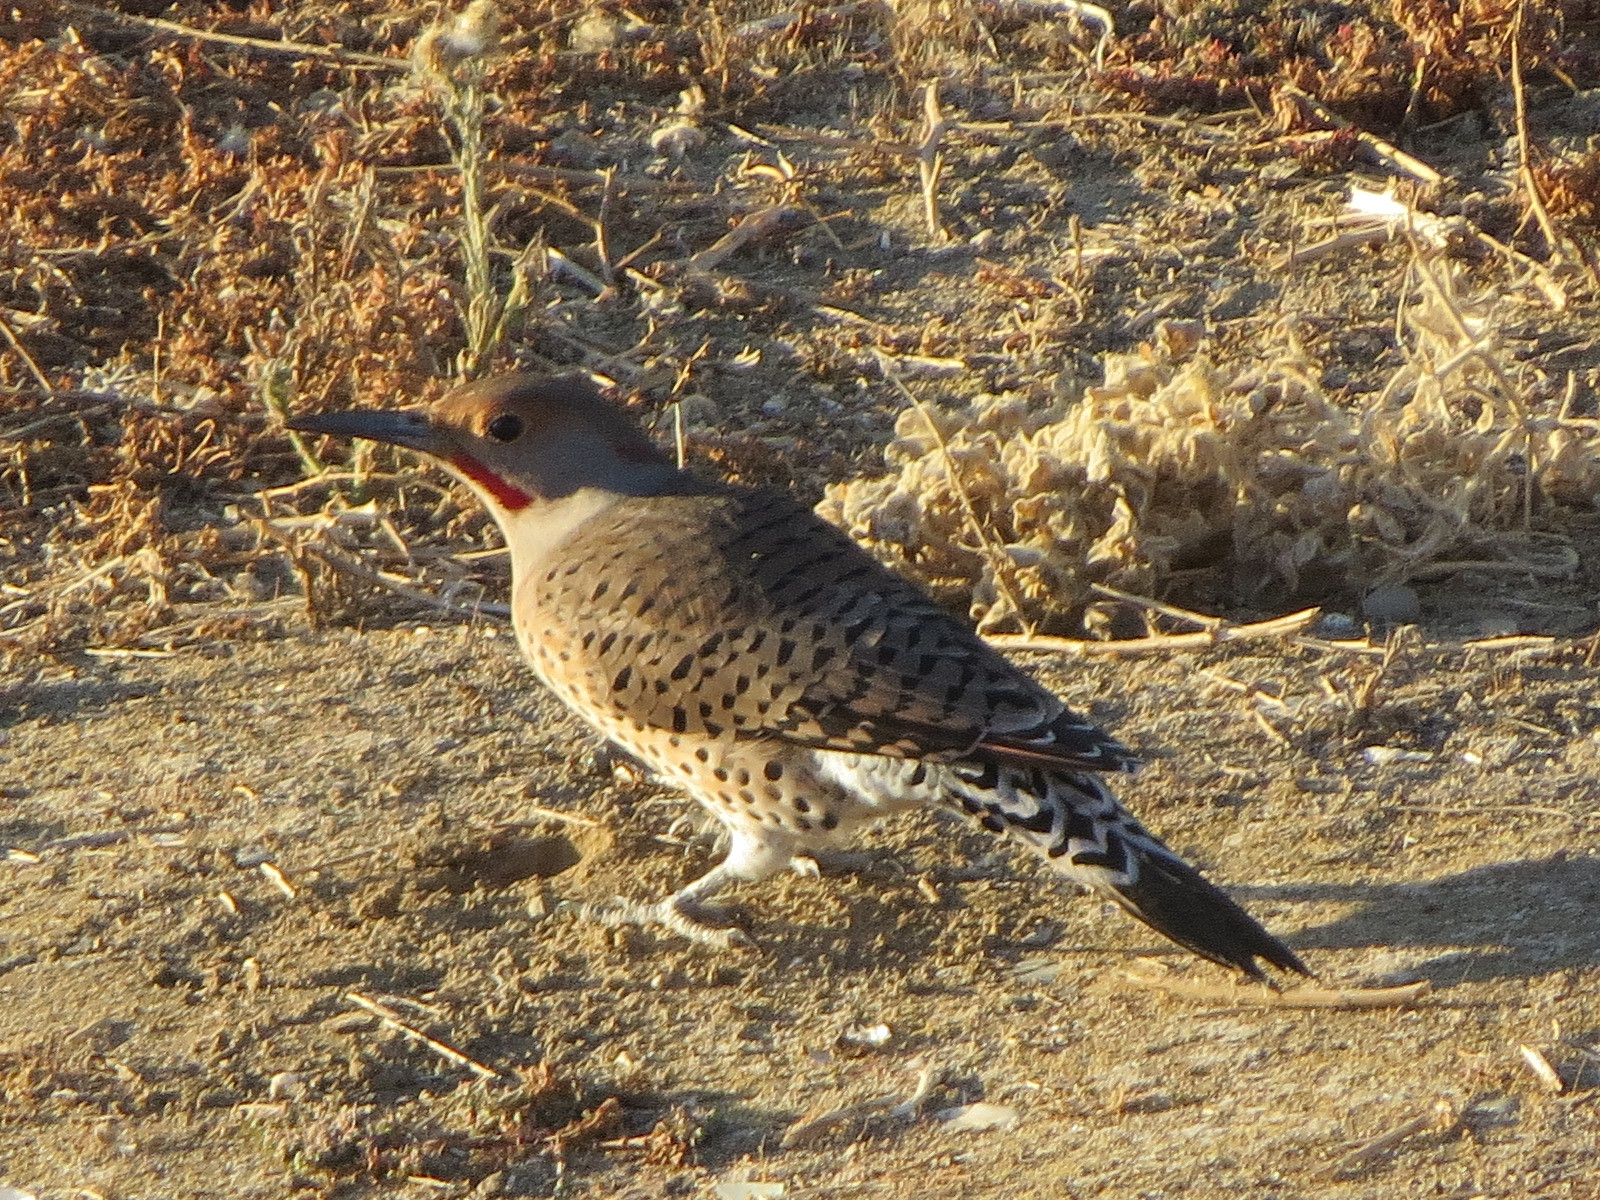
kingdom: Animalia
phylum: Chordata
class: Aves
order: Piciformes
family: Picidae
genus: Colaptes
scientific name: Colaptes
